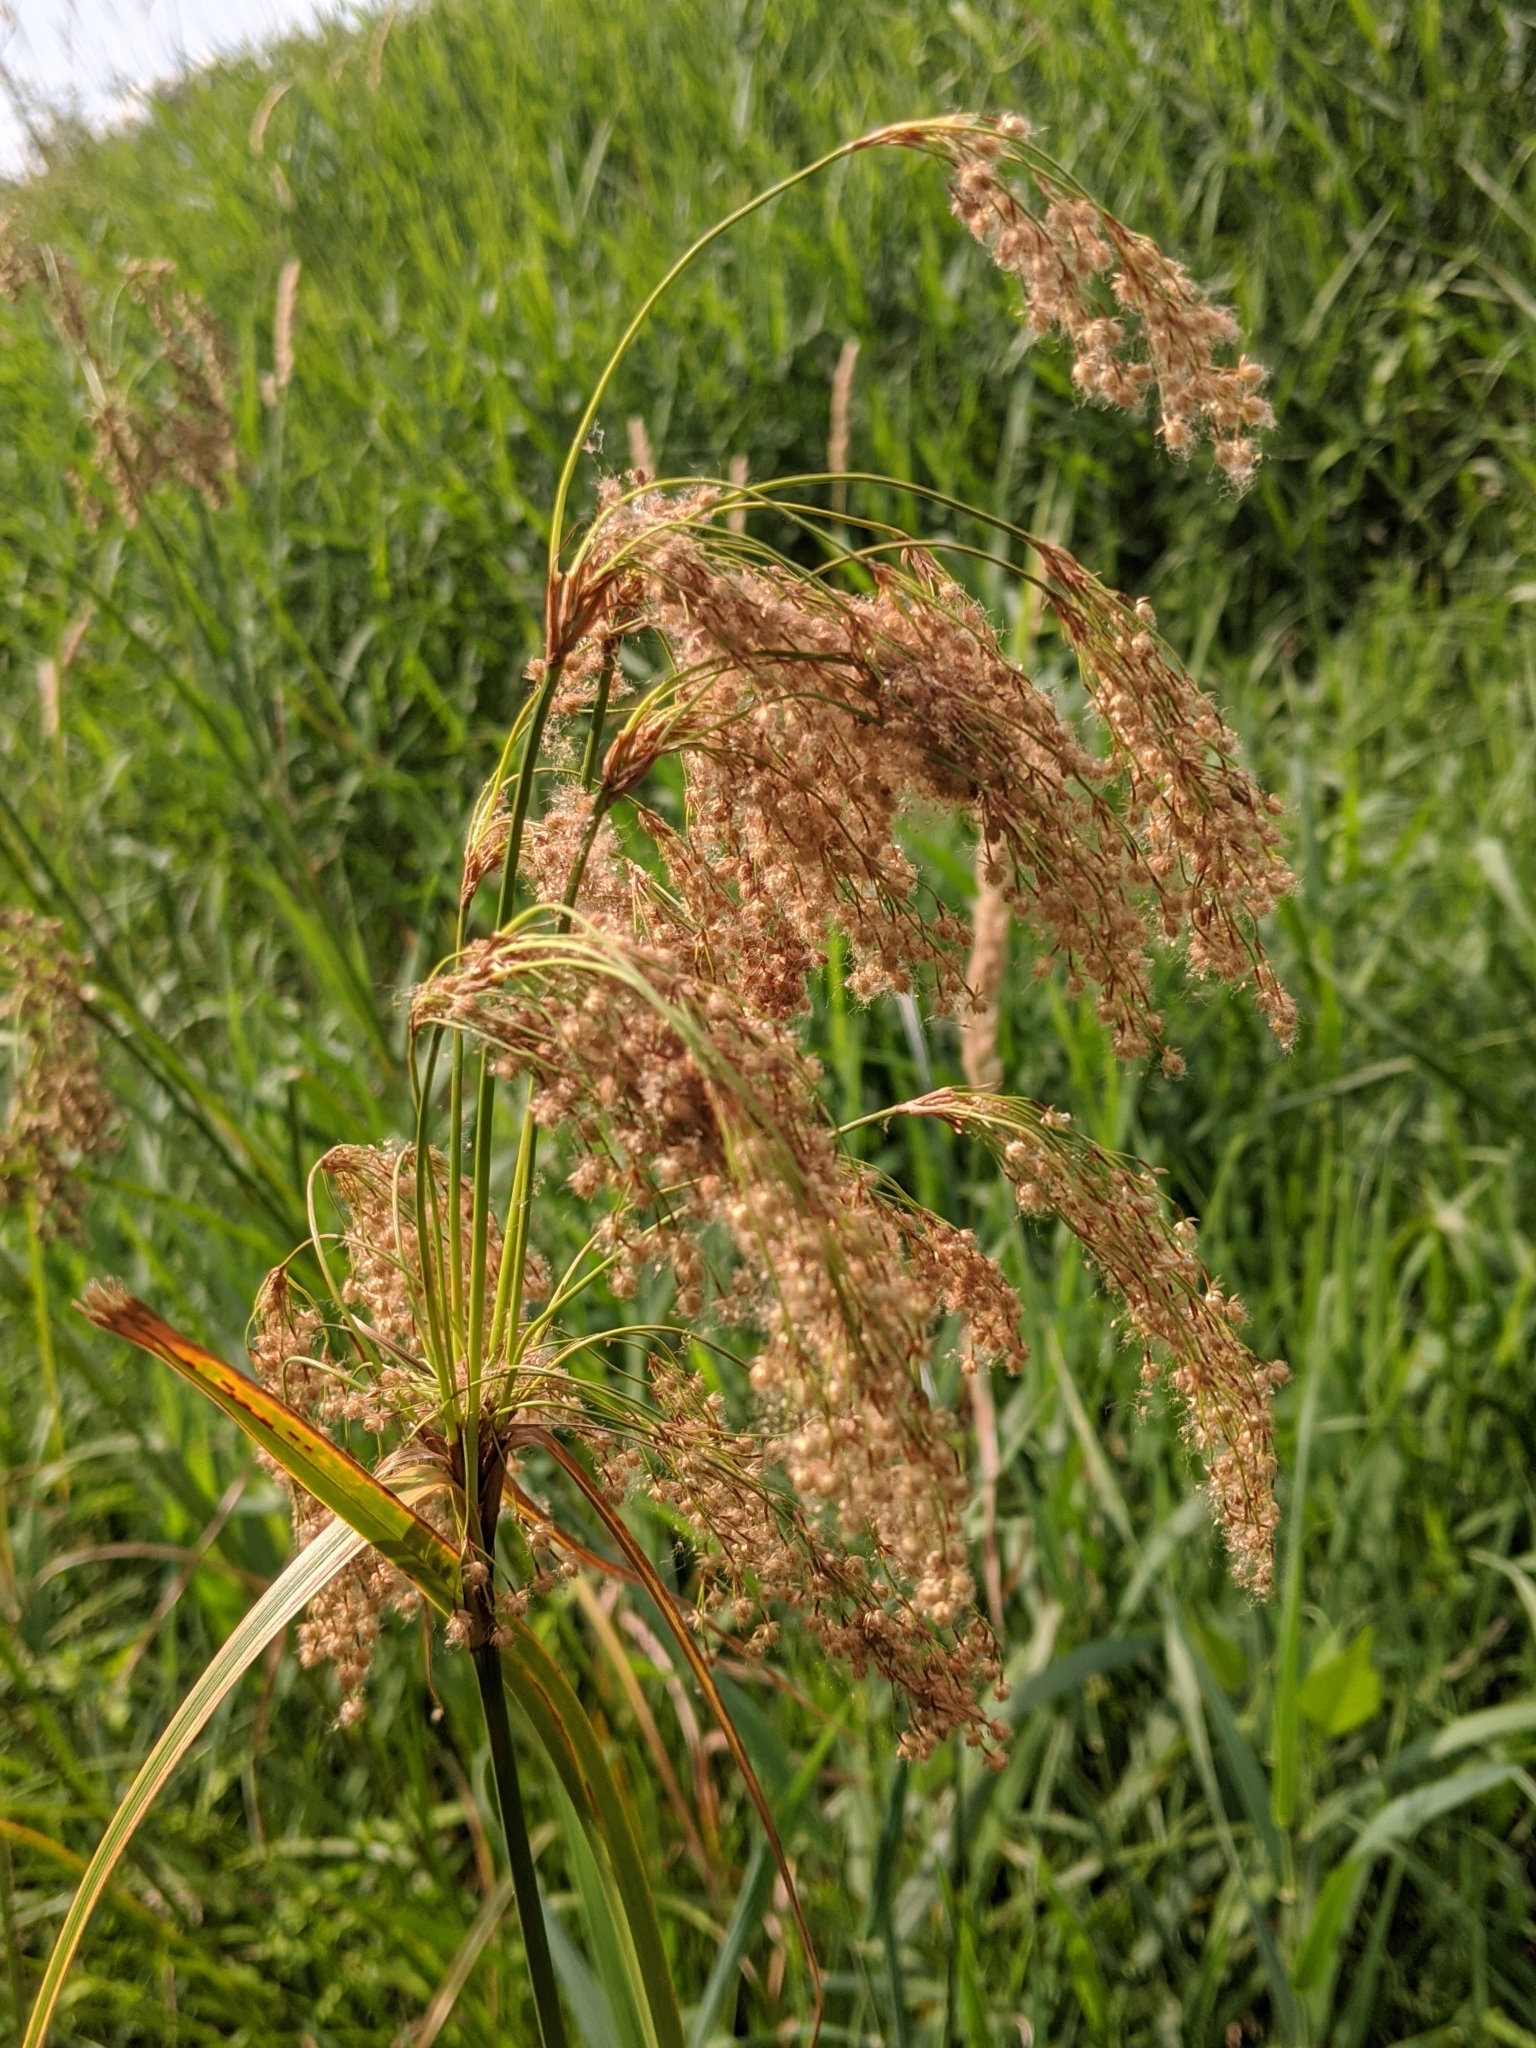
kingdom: Plantae
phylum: Tracheophyta
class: Liliopsida
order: Poales
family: Cyperaceae
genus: Scirpus
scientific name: Scirpus cyperinus
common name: Black-sheathed bulrush
